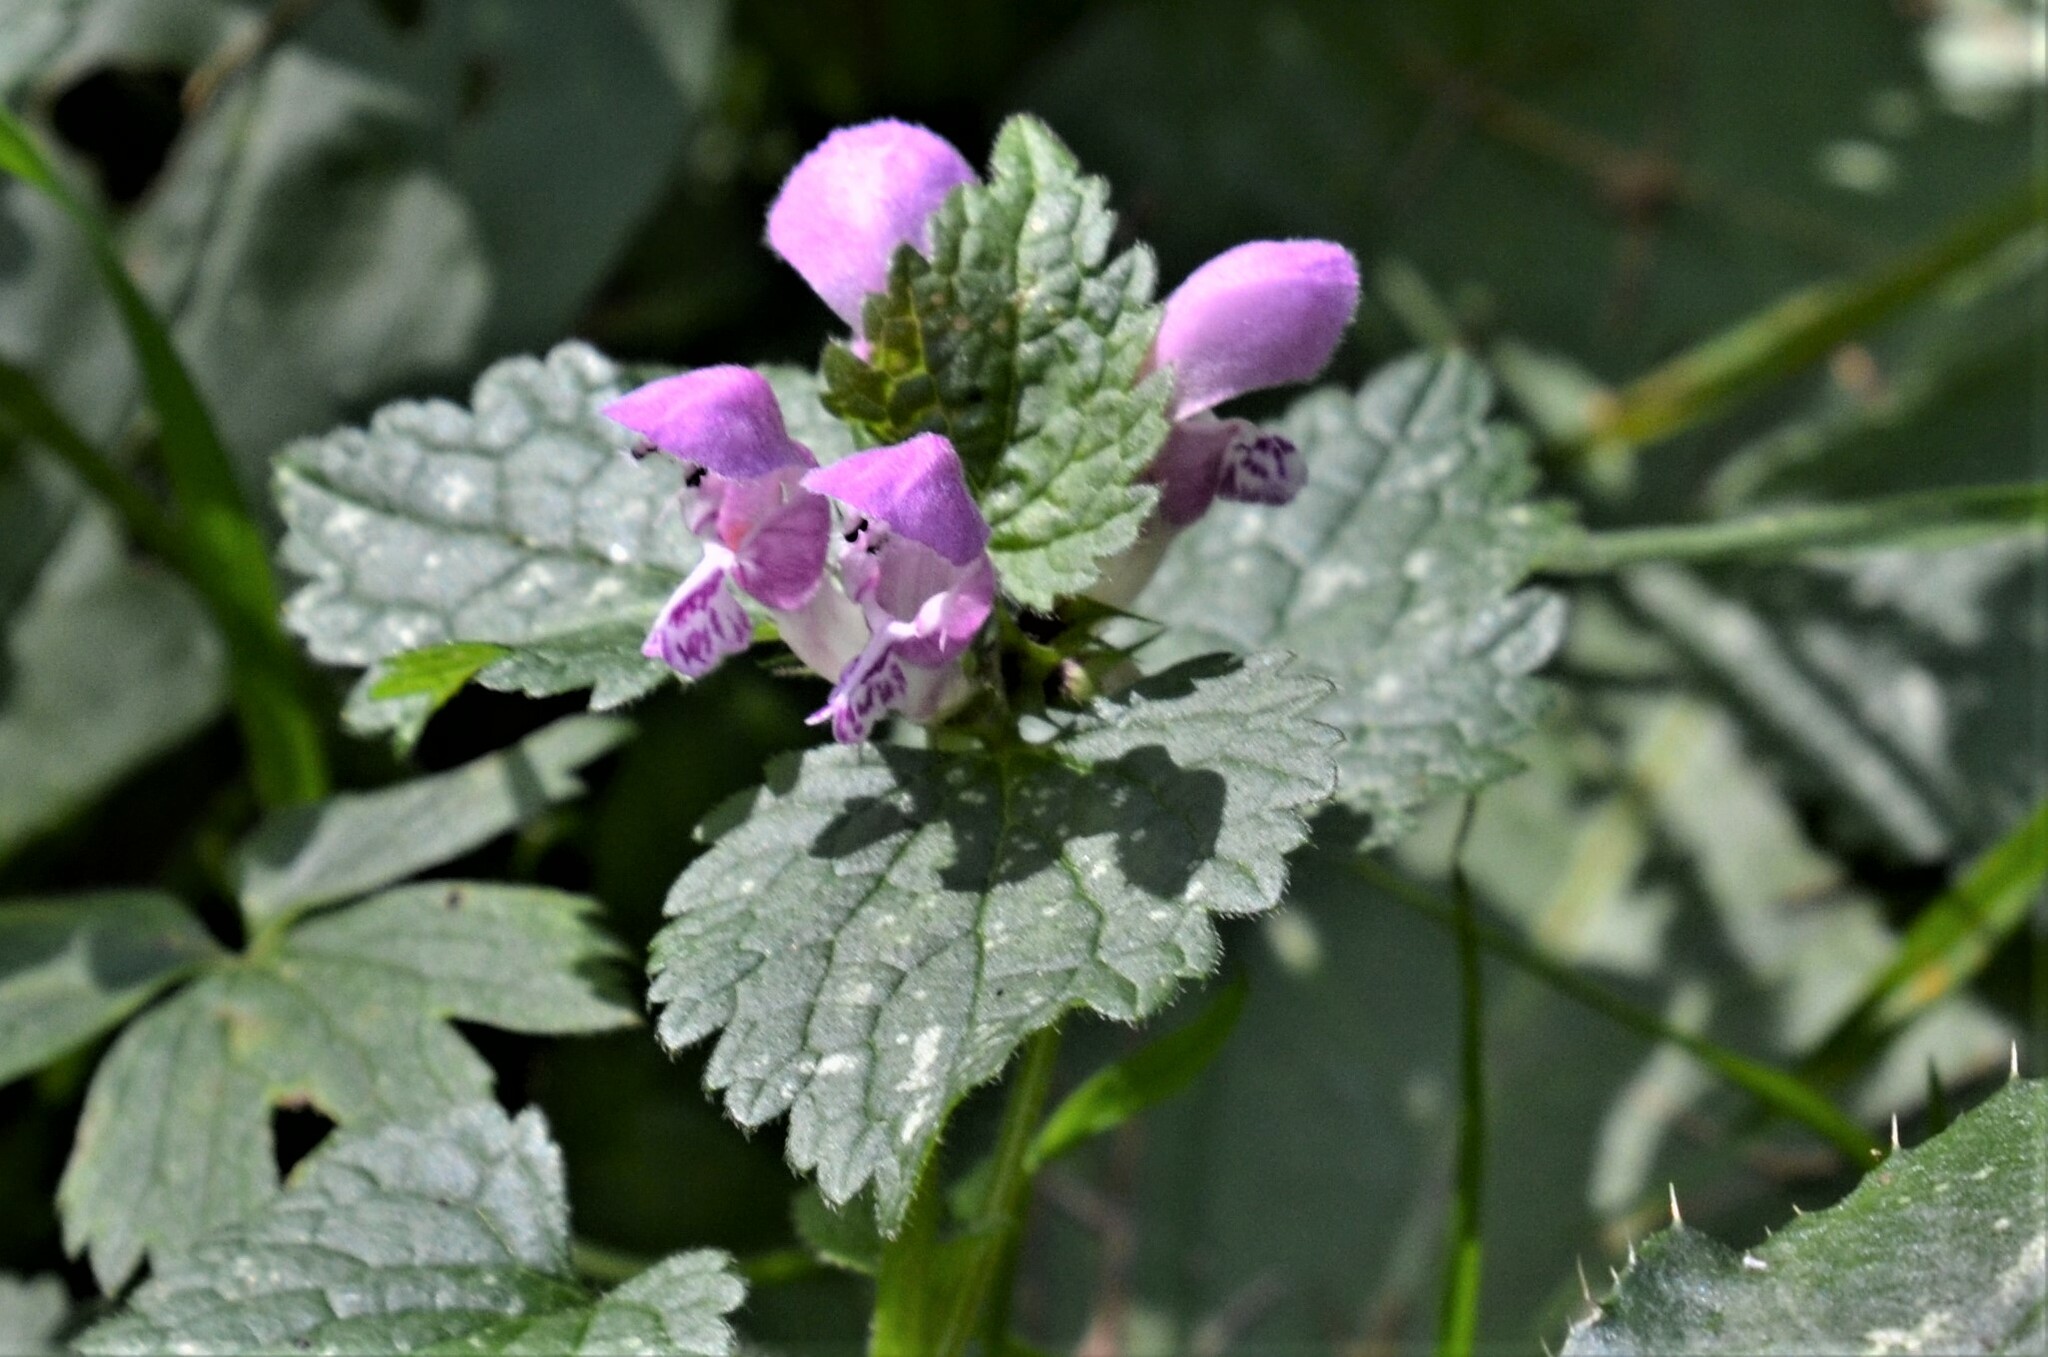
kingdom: Plantae
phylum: Tracheophyta
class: Magnoliopsida
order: Lamiales
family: Lamiaceae
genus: Lamium
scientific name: Lamium maculatum
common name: Spotted dead-nettle
